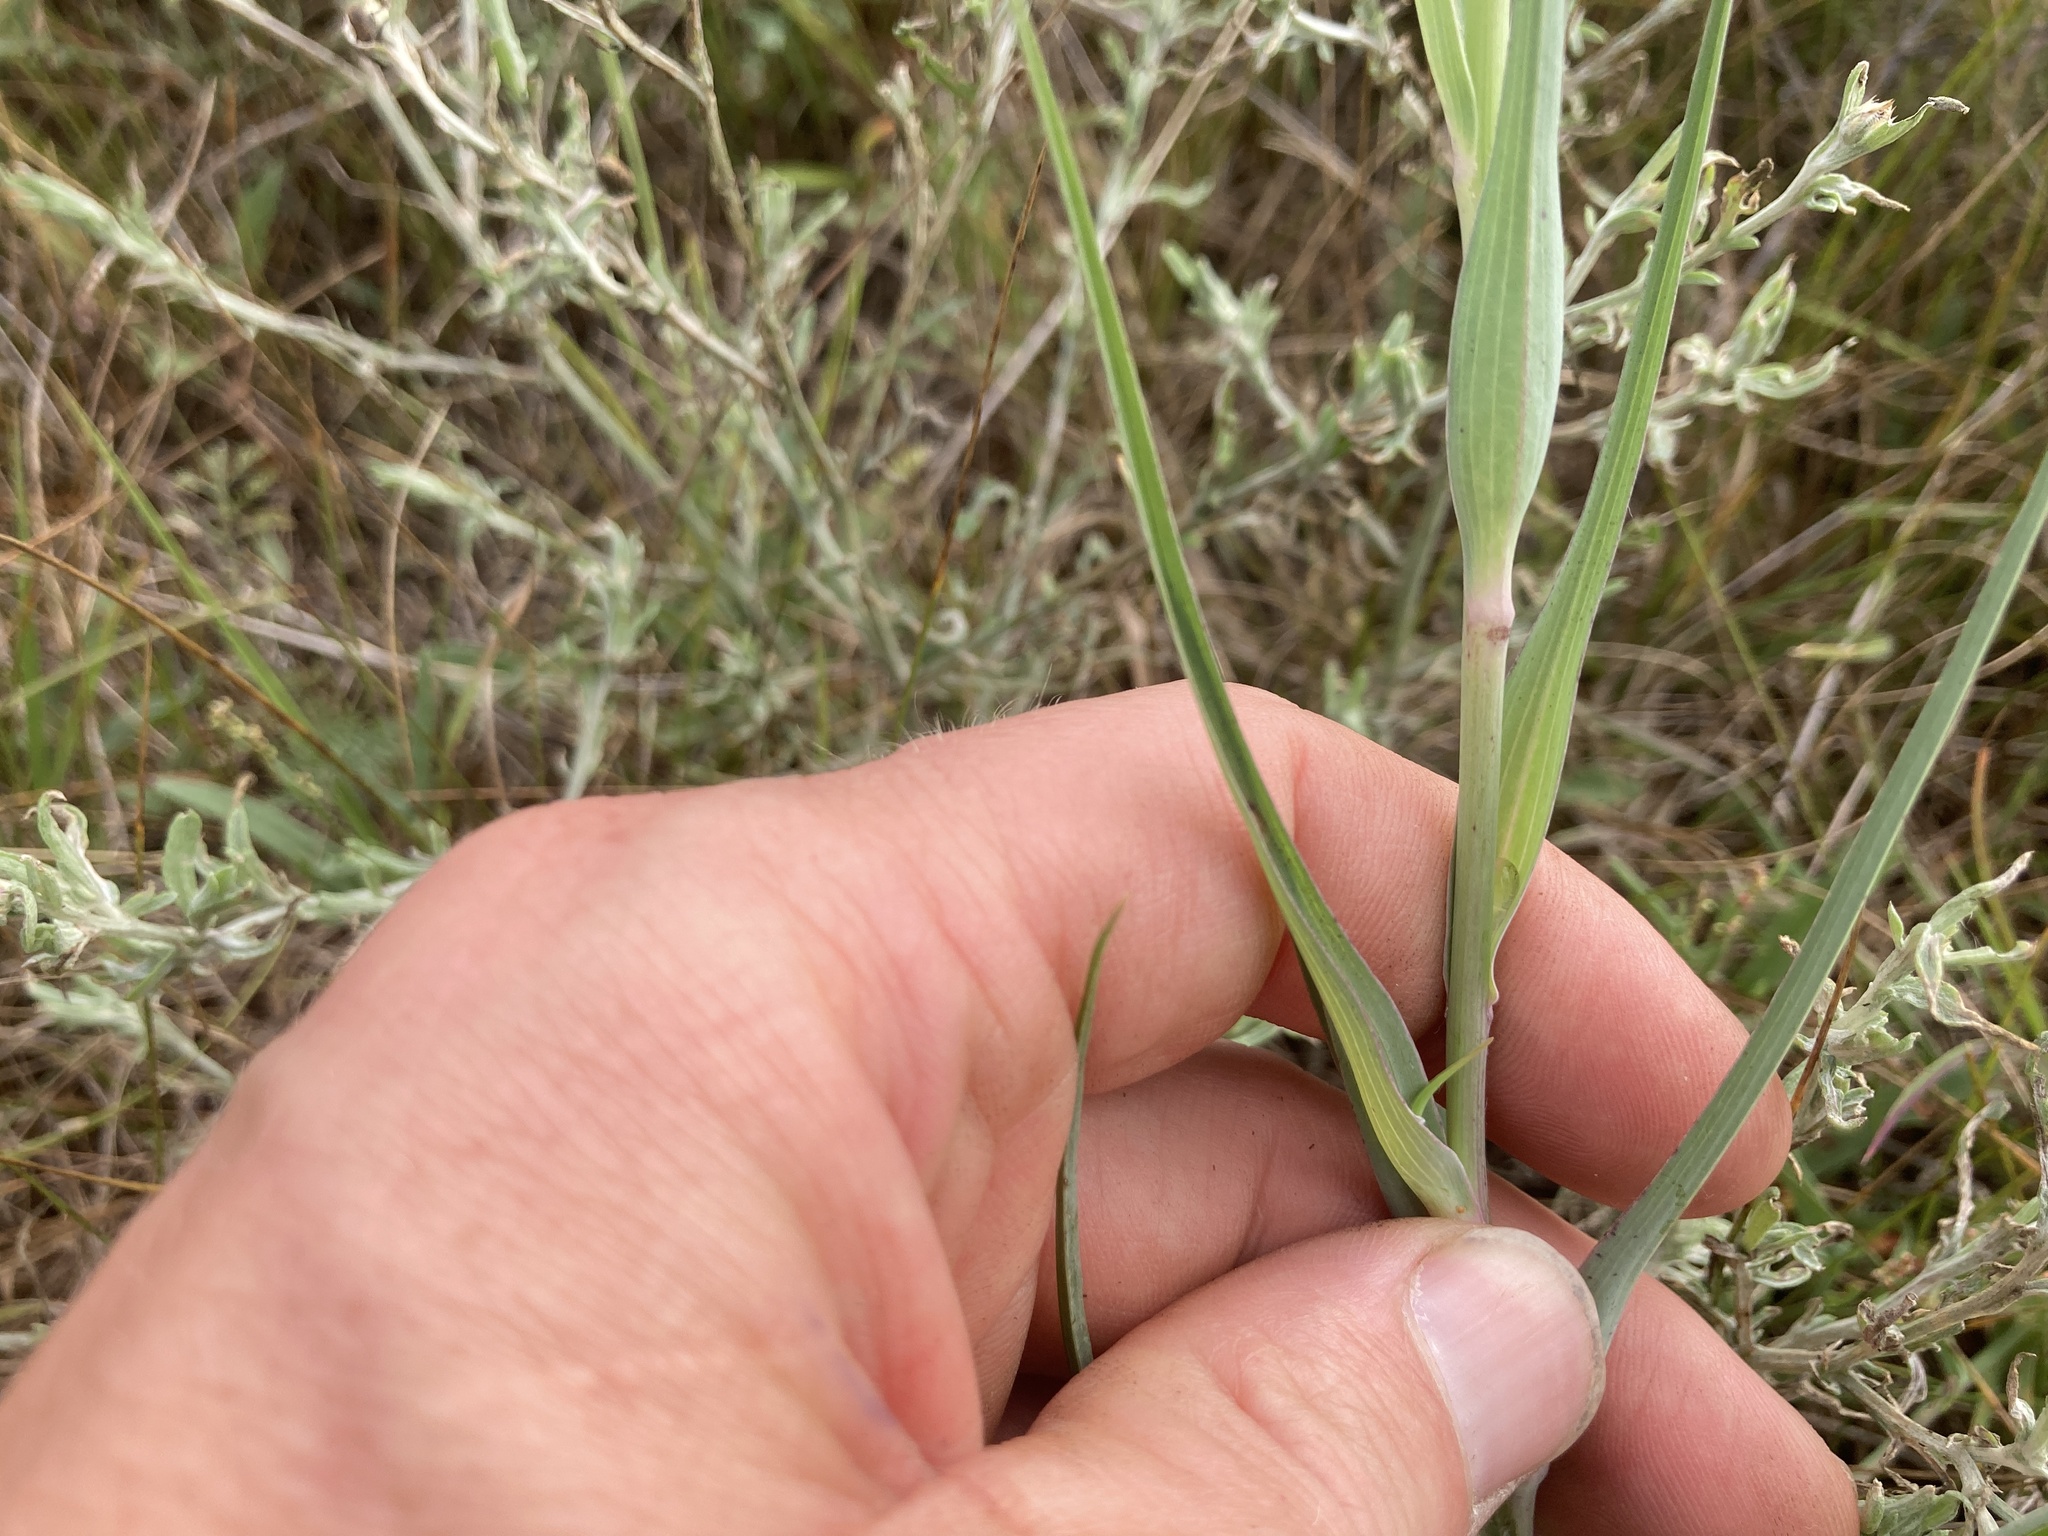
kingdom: Plantae
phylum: Tracheophyta
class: Magnoliopsida
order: Asterales
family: Asteraceae
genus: Tragopogon
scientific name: Tragopogon dubius
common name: Yellow salsify
